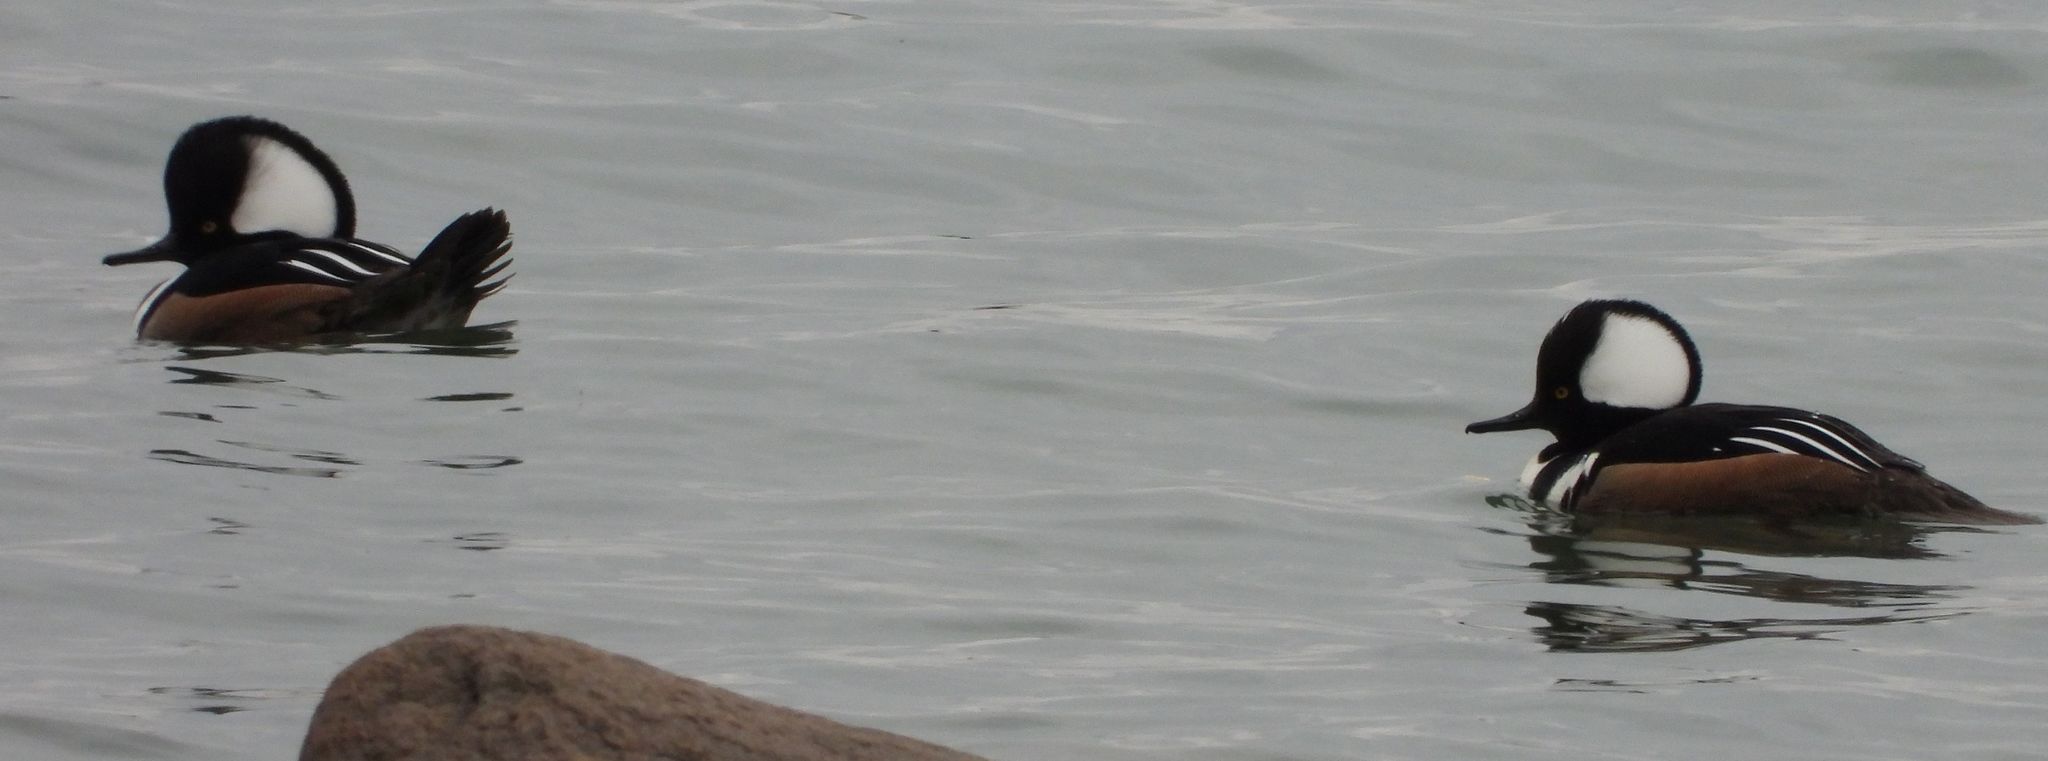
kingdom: Animalia
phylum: Chordata
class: Aves
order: Anseriformes
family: Anatidae
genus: Lophodytes
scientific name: Lophodytes cucullatus
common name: Hooded merganser
